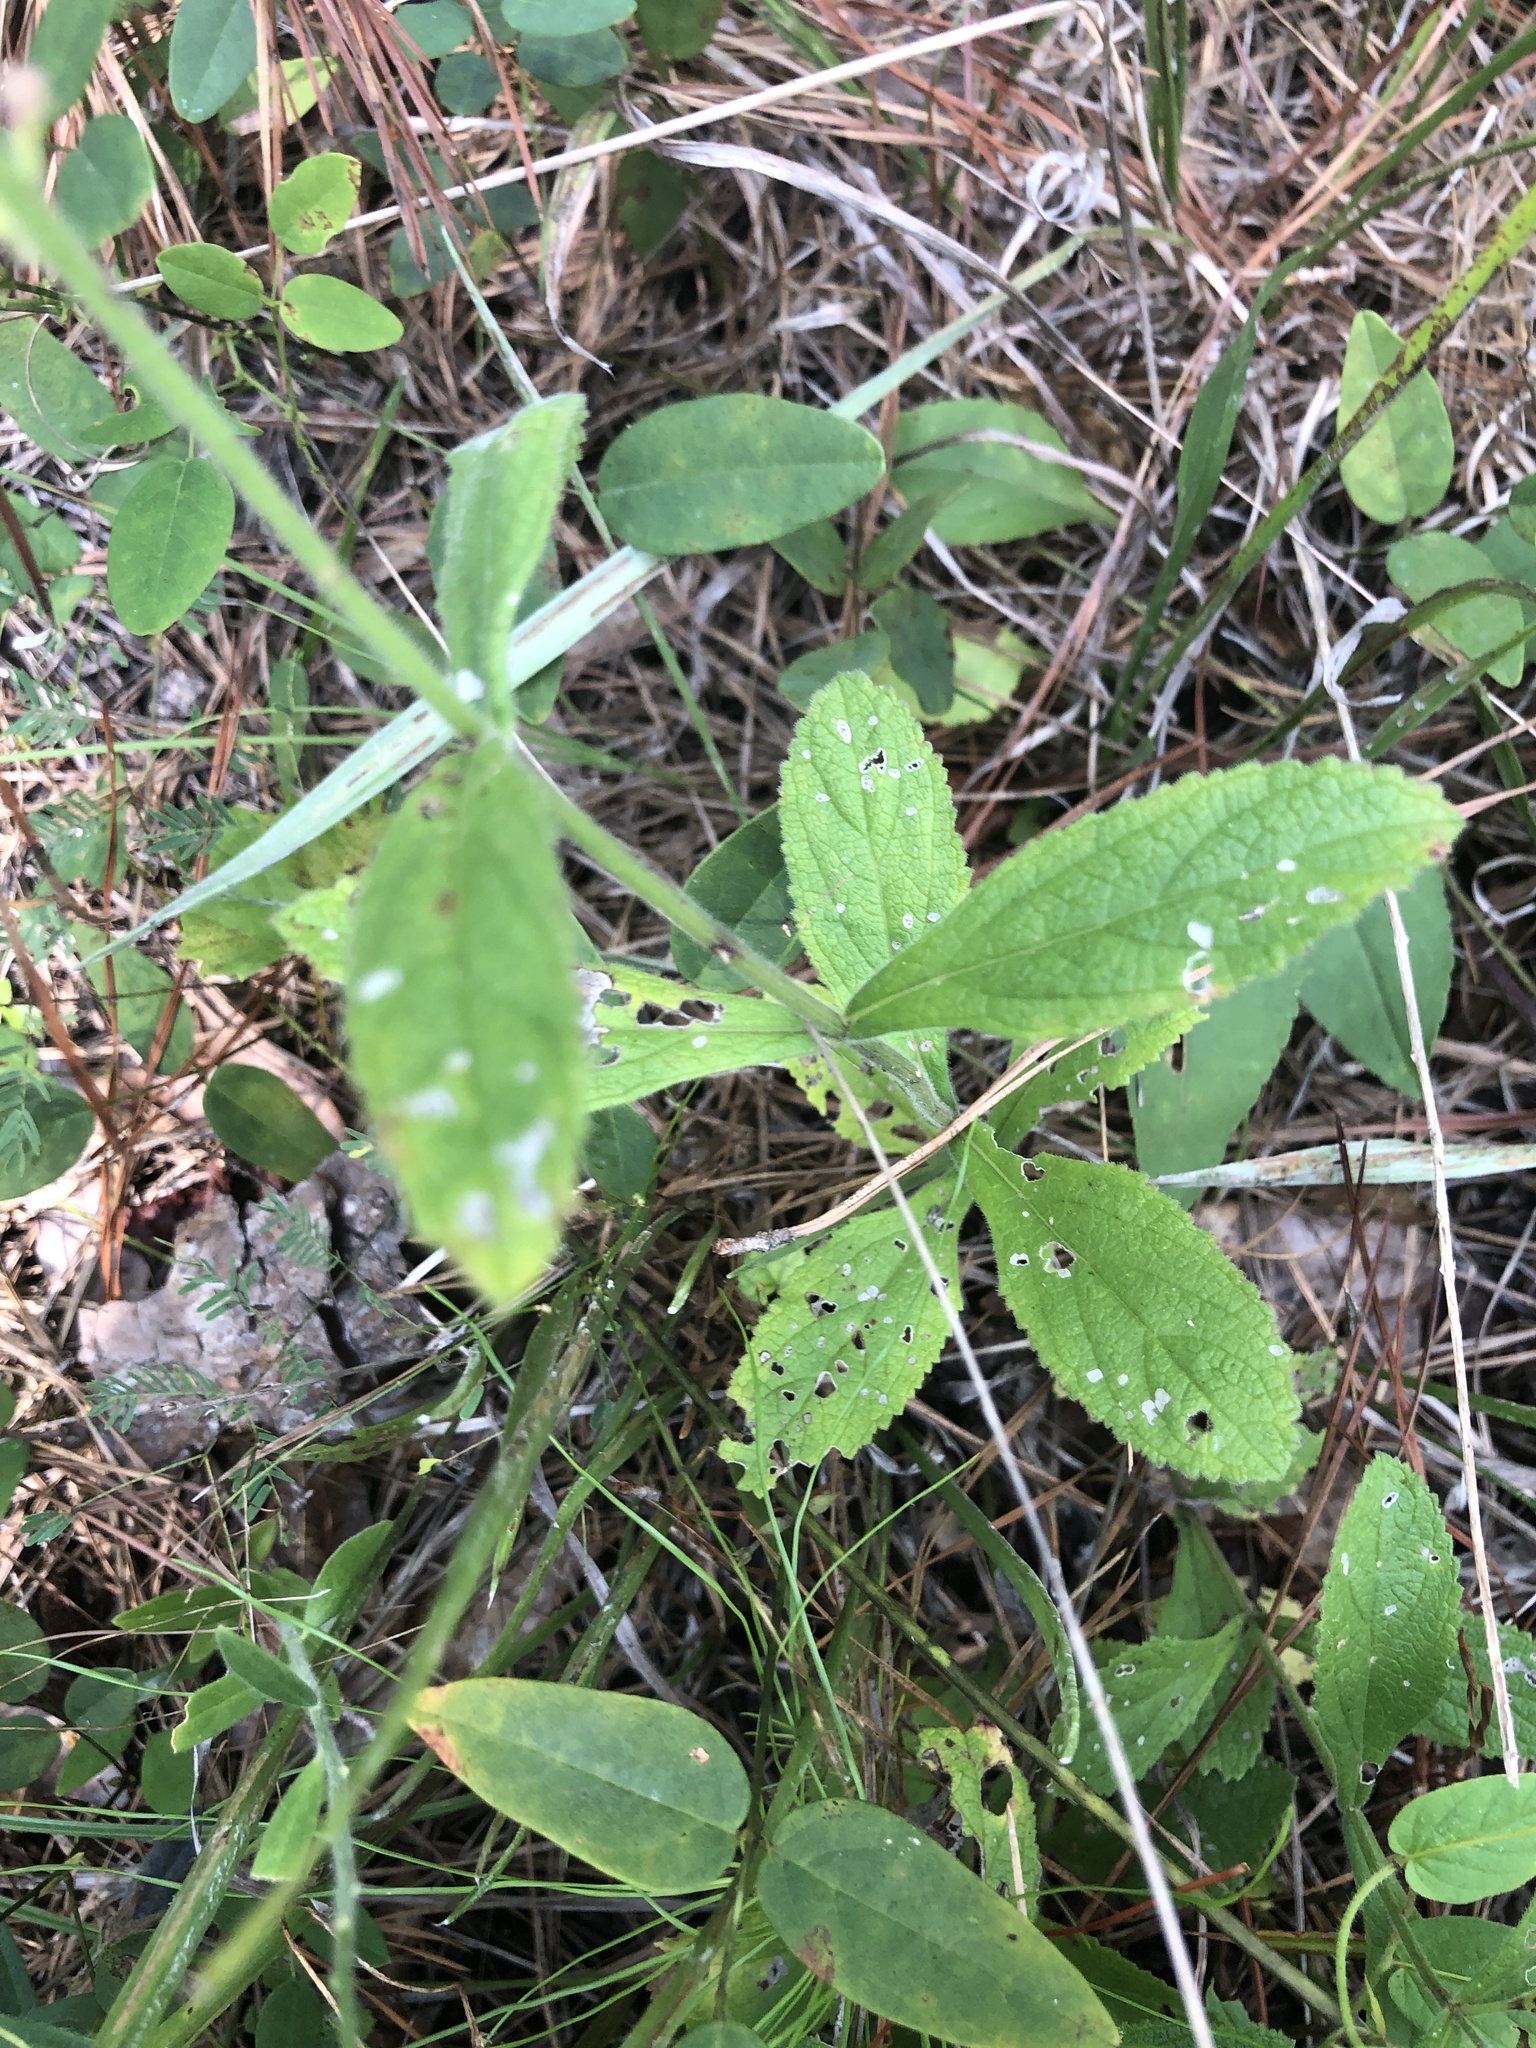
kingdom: Plantae
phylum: Tracheophyta
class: Magnoliopsida
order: Lamiales
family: Verbenaceae
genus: Verbena
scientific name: Verbena carnea
